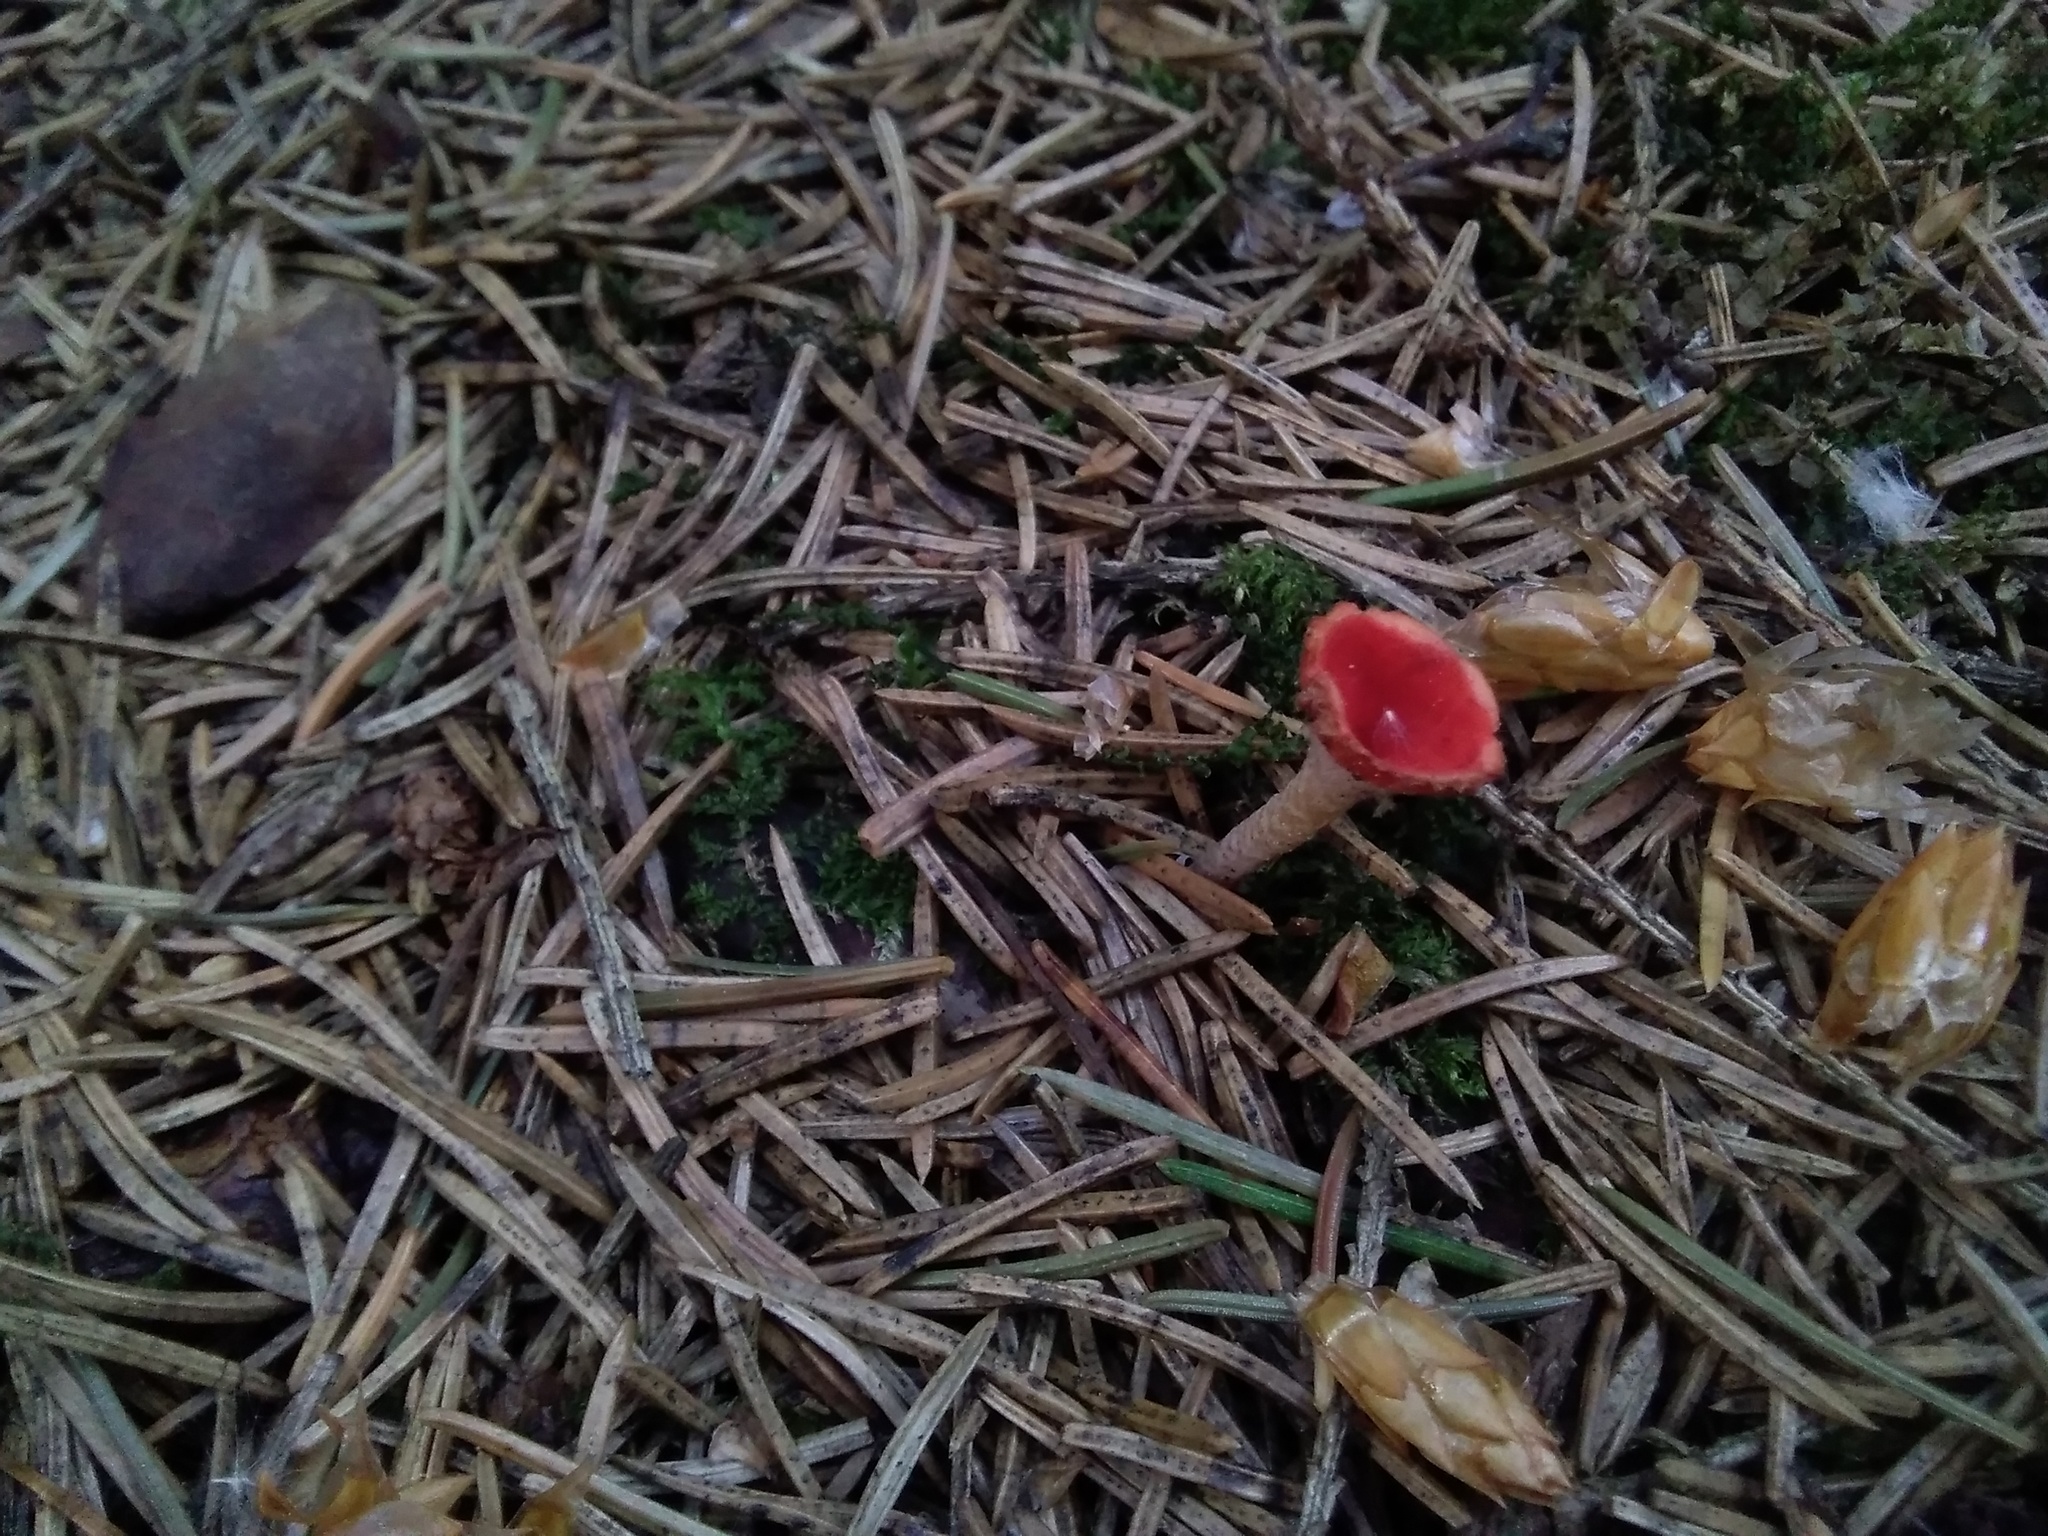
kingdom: Fungi
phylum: Ascomycota
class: Pezizomycetes
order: Pezizales
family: Sarcoscyphaceae
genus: Microstoma
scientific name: Microstoma protractum
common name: Rosy goblet
